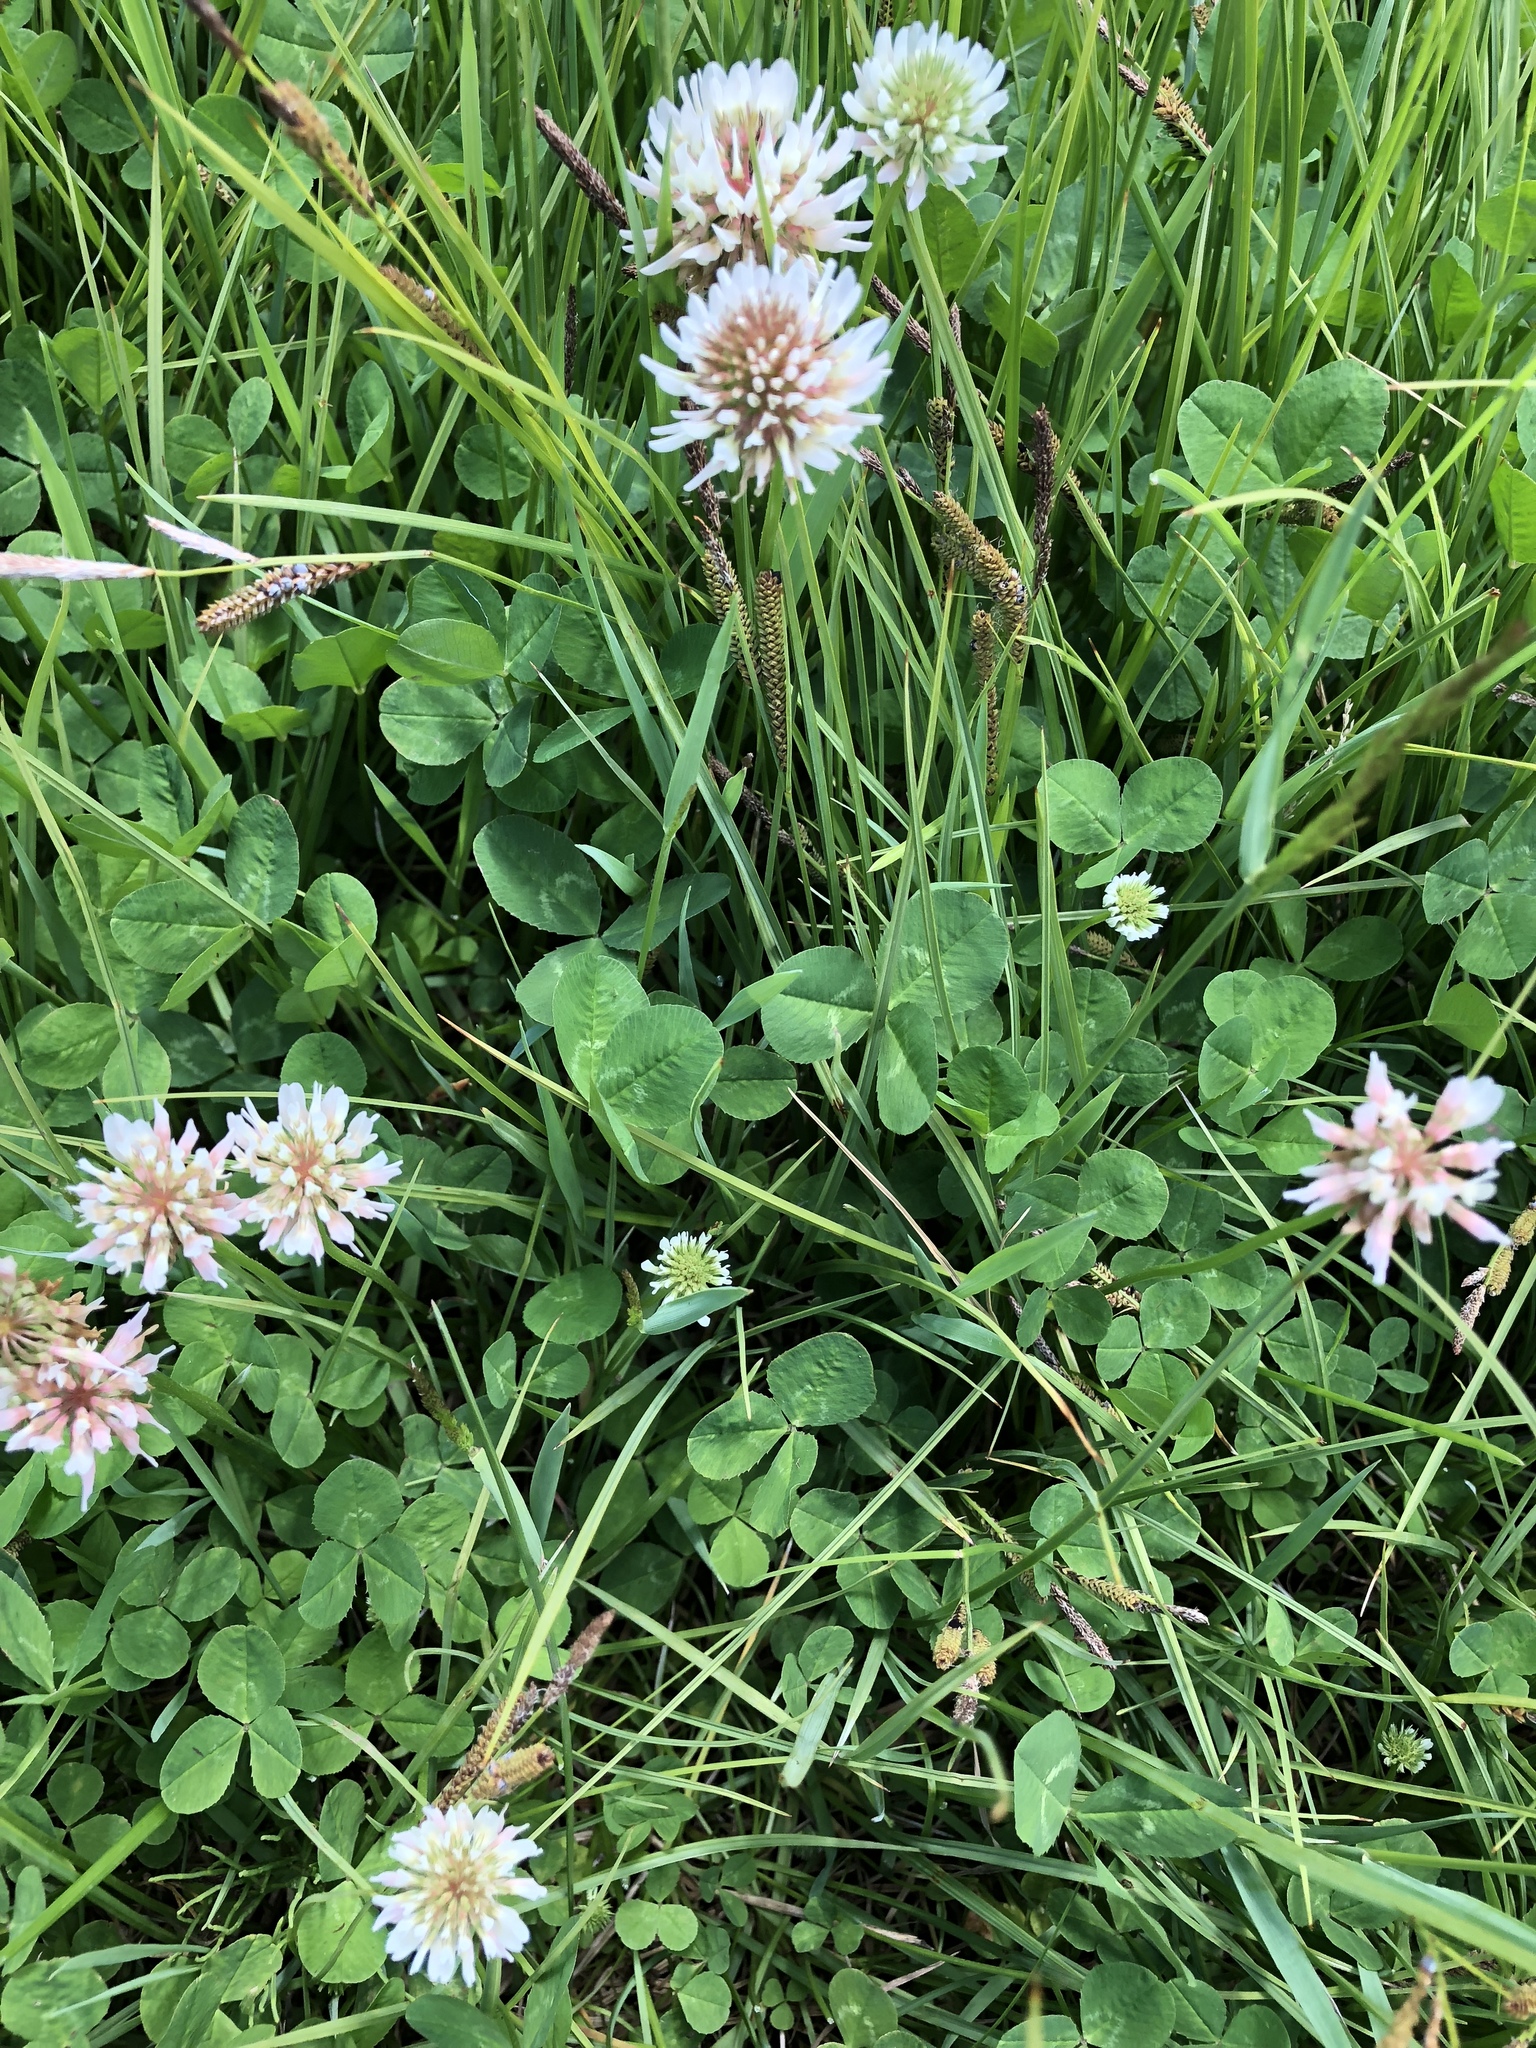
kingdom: Plantae
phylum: Tracheophyta
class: Magnoliopsida
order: Fabales
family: Fabaceae
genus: Trifolium
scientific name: Trifolium repens
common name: White clover
